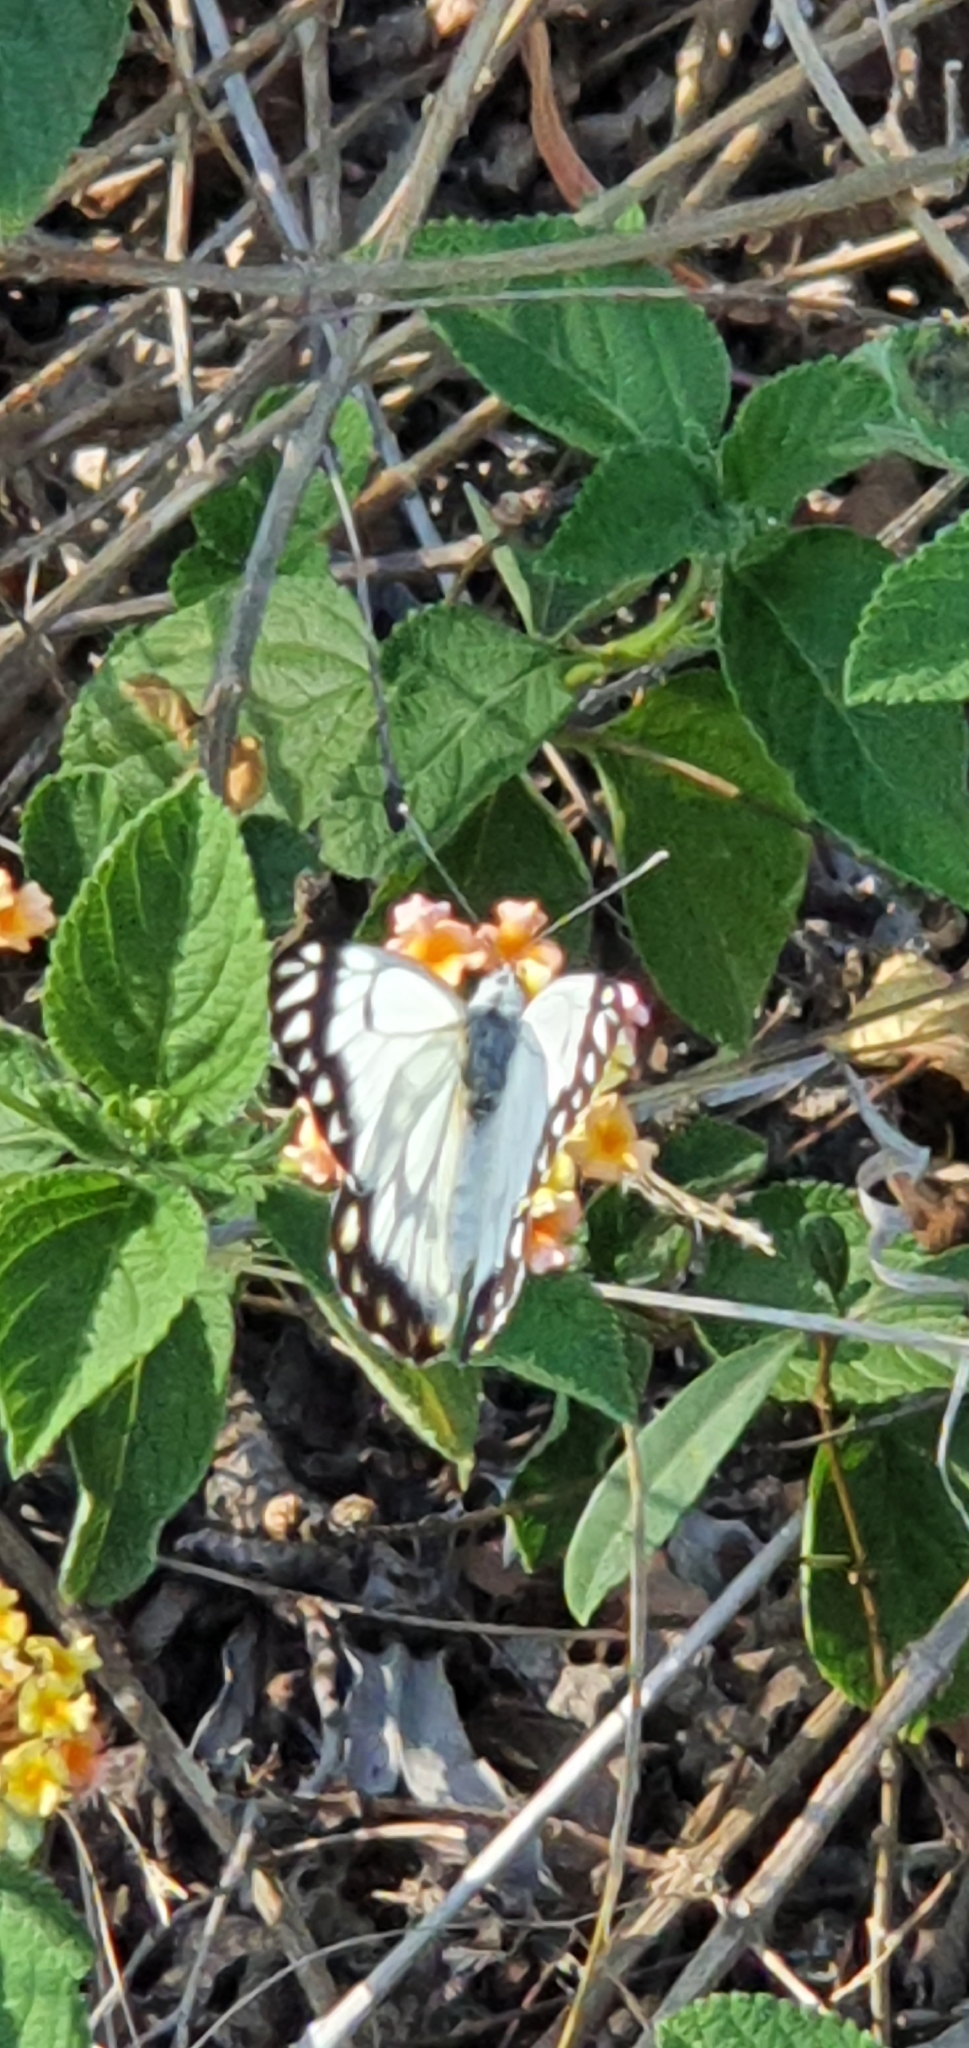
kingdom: Animalia
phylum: Arthropoda
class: Insecta
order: Lepidoptera
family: Pieridae
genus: Belenois
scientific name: Belenois java
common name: Caper white
